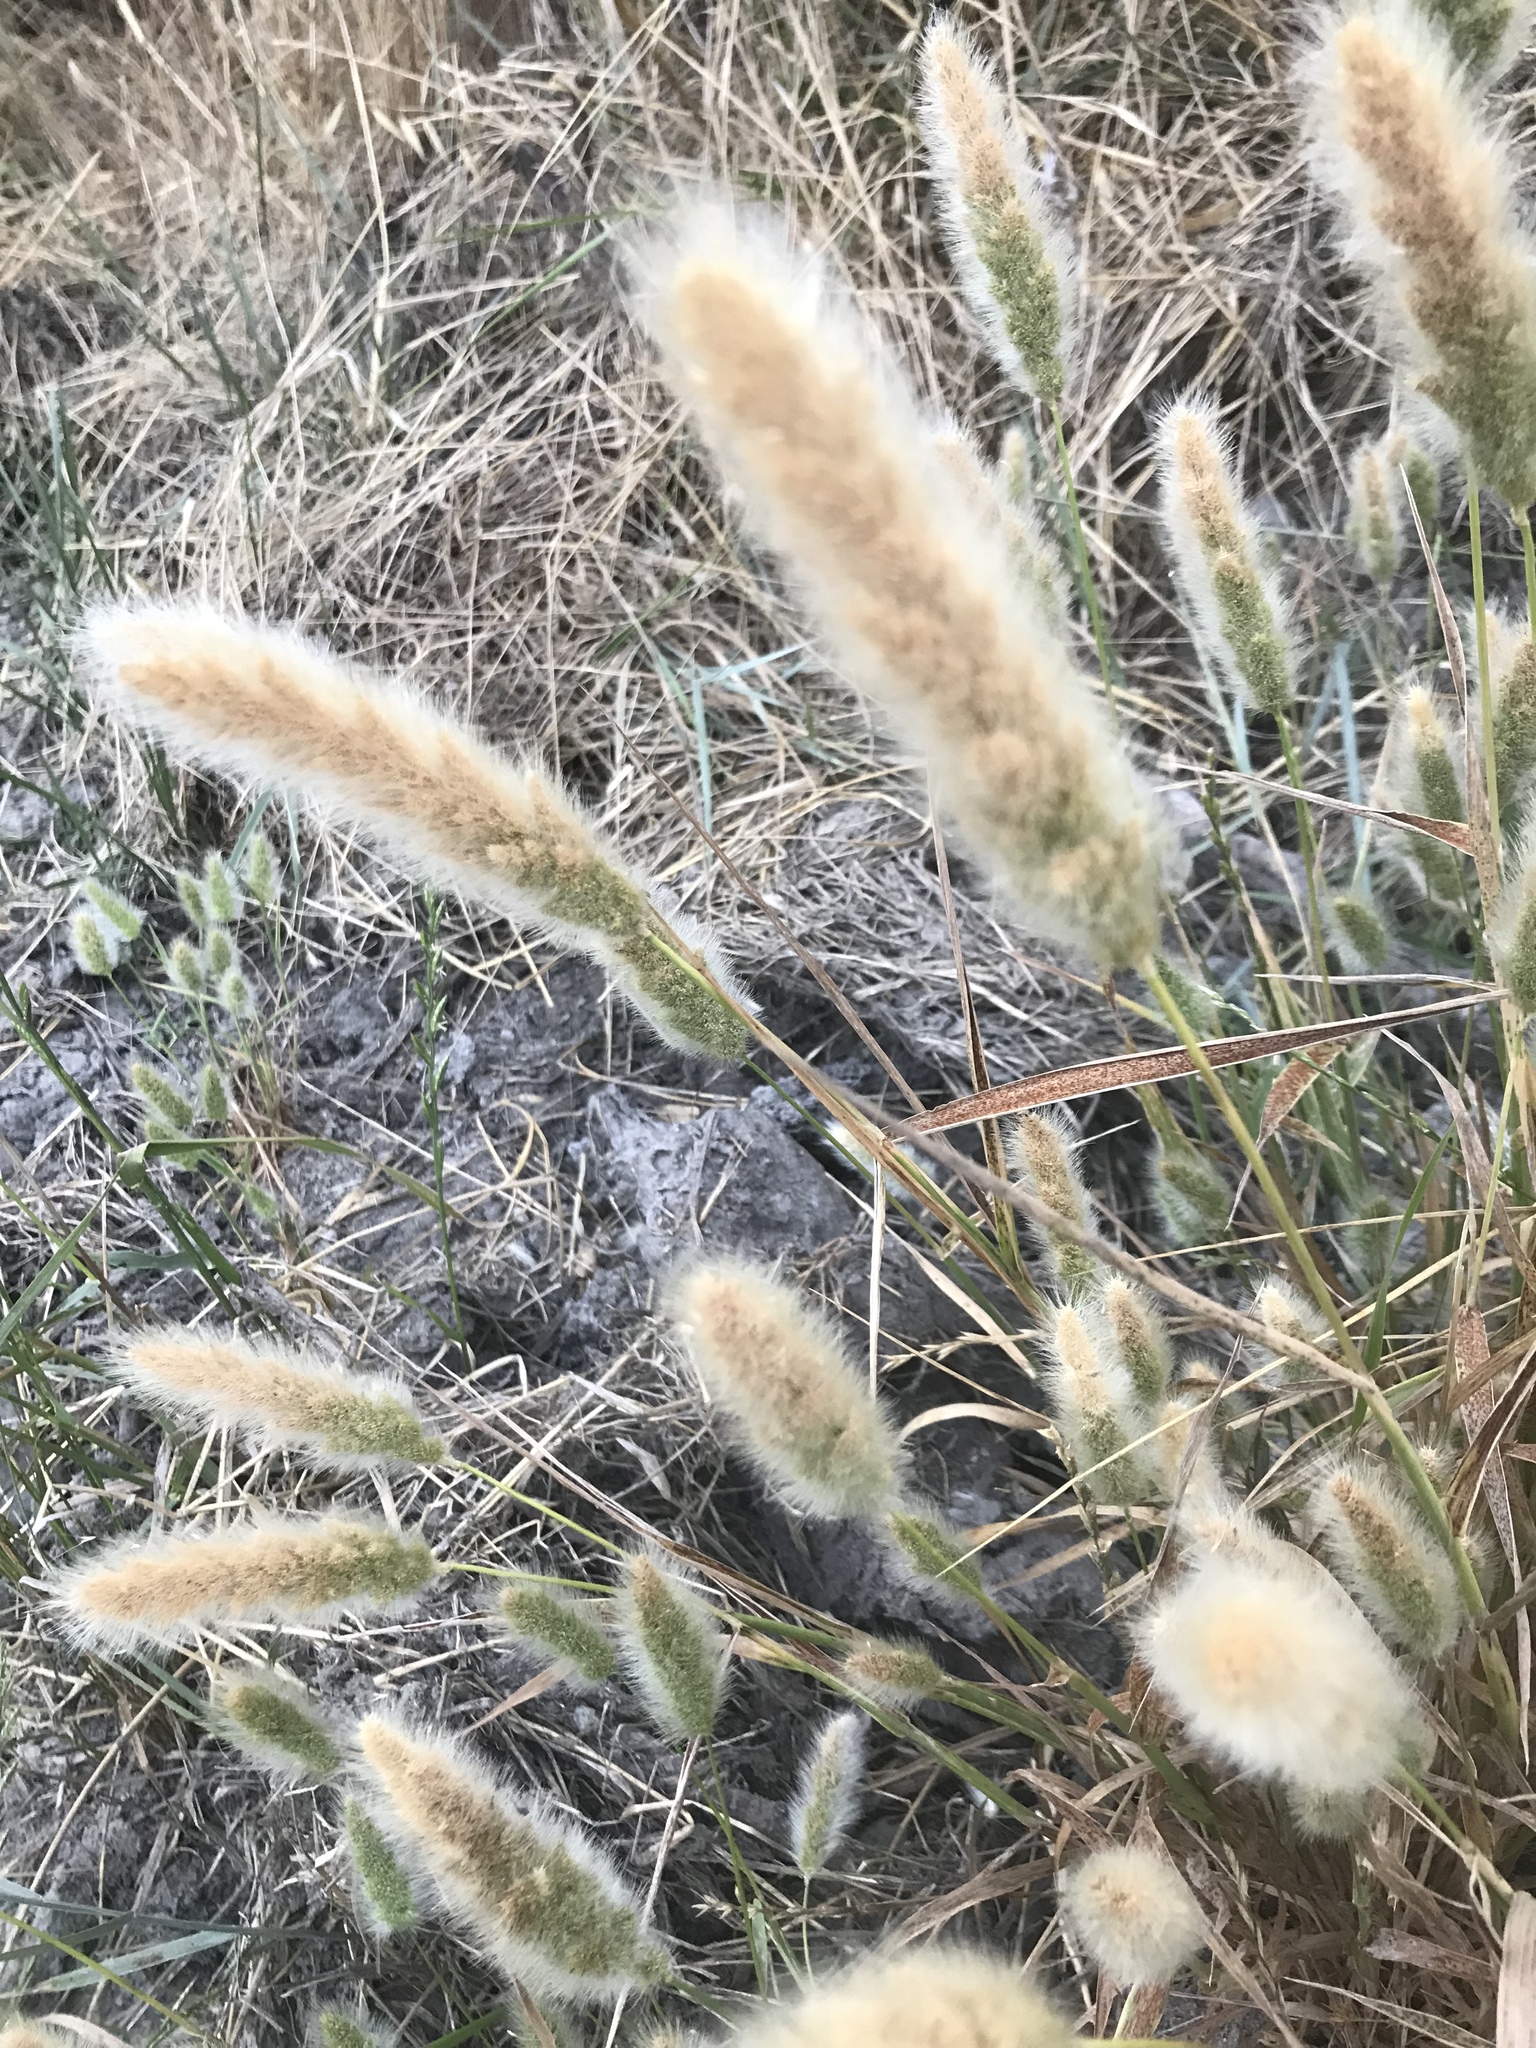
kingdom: Plantae
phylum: Tracheophyta
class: Liliopsida
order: Poales
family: Poaceae
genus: Polypogon
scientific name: Polypogon monspeliensis
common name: Annual rabbitsfoot grass
